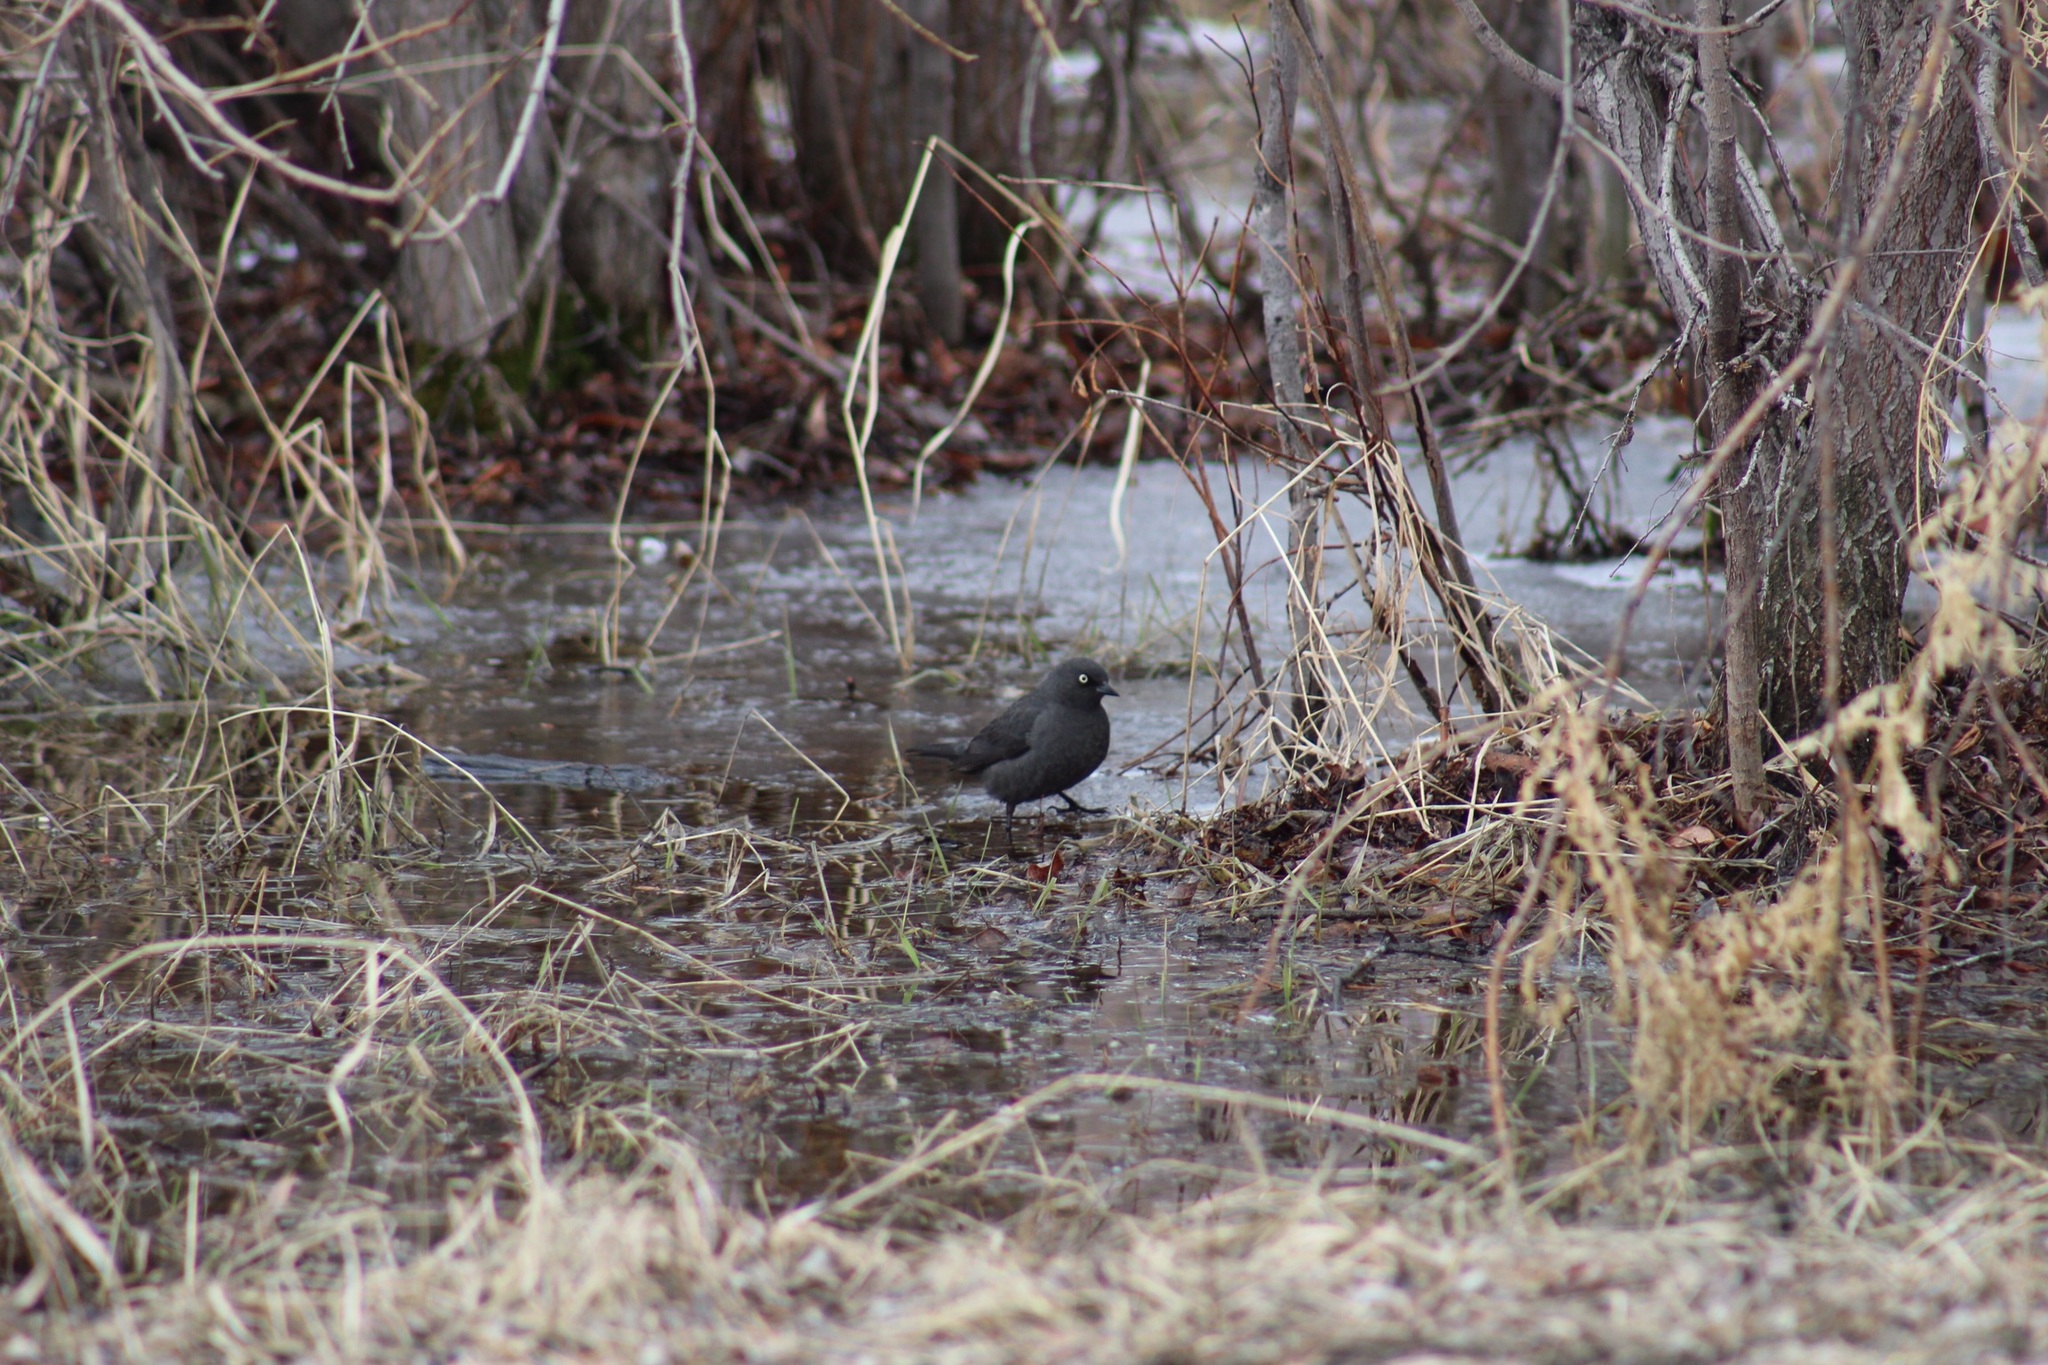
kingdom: Animalia
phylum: Chordata
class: Aves
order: Passeriformes
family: Icteridae
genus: Euphagus
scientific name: Euphagus carolinus
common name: Rusty blackbird
